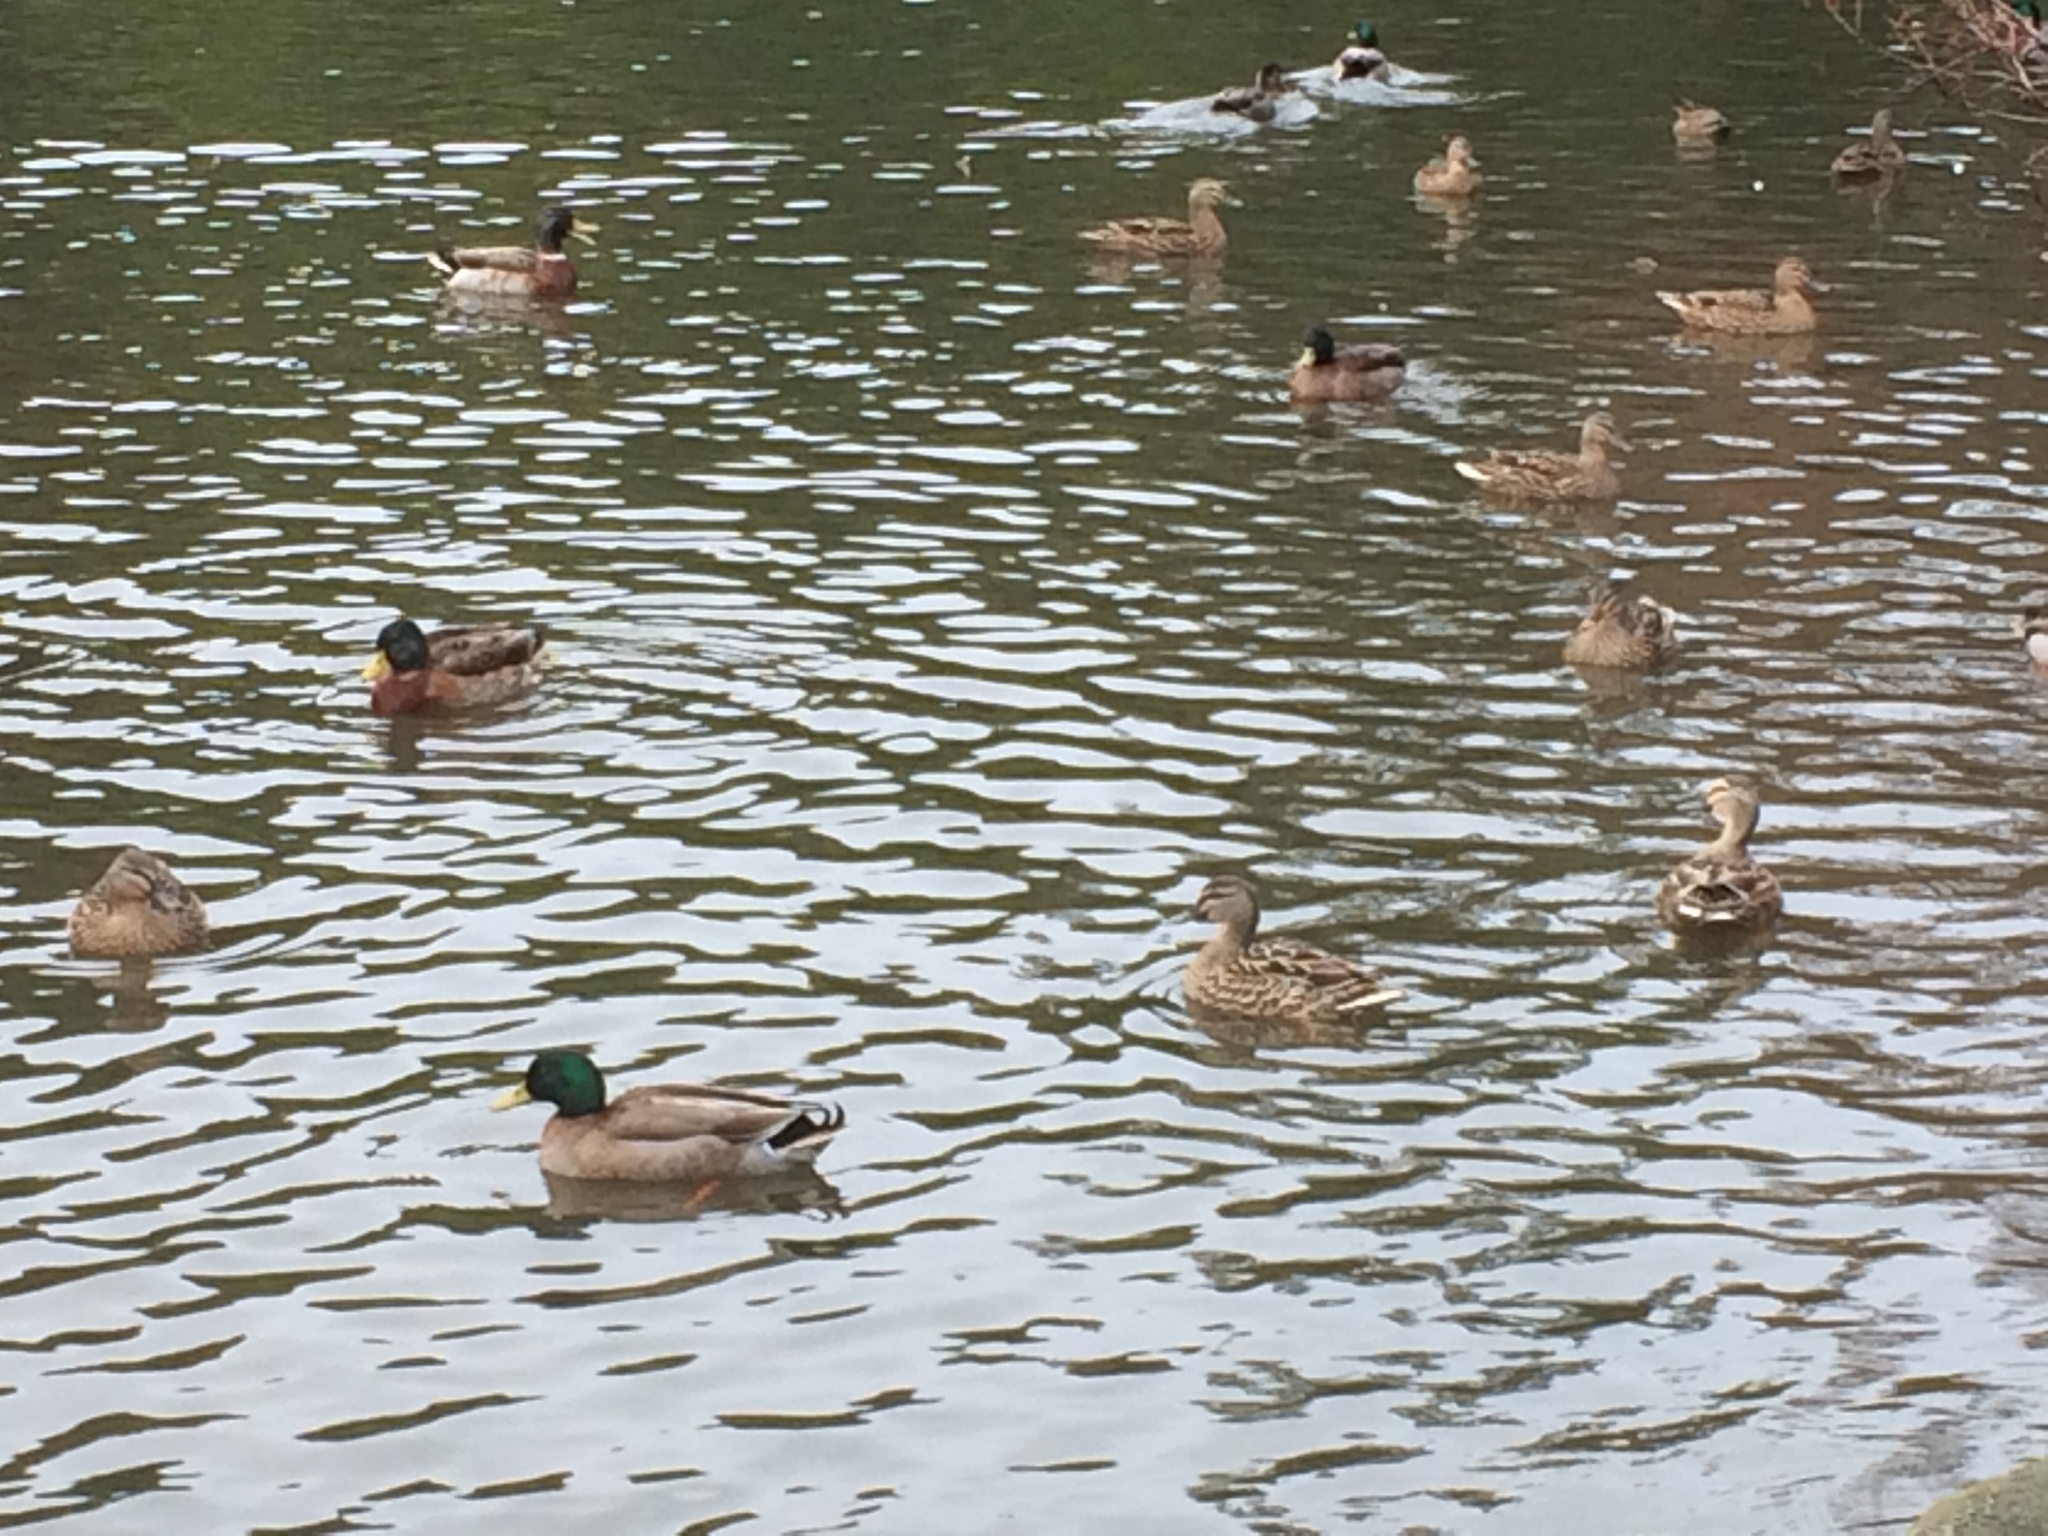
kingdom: Animalia
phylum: Chordata
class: Aves
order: Anseriformes
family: Anatidae
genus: Anas
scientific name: Anas platyrhynchos
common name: Mallard
